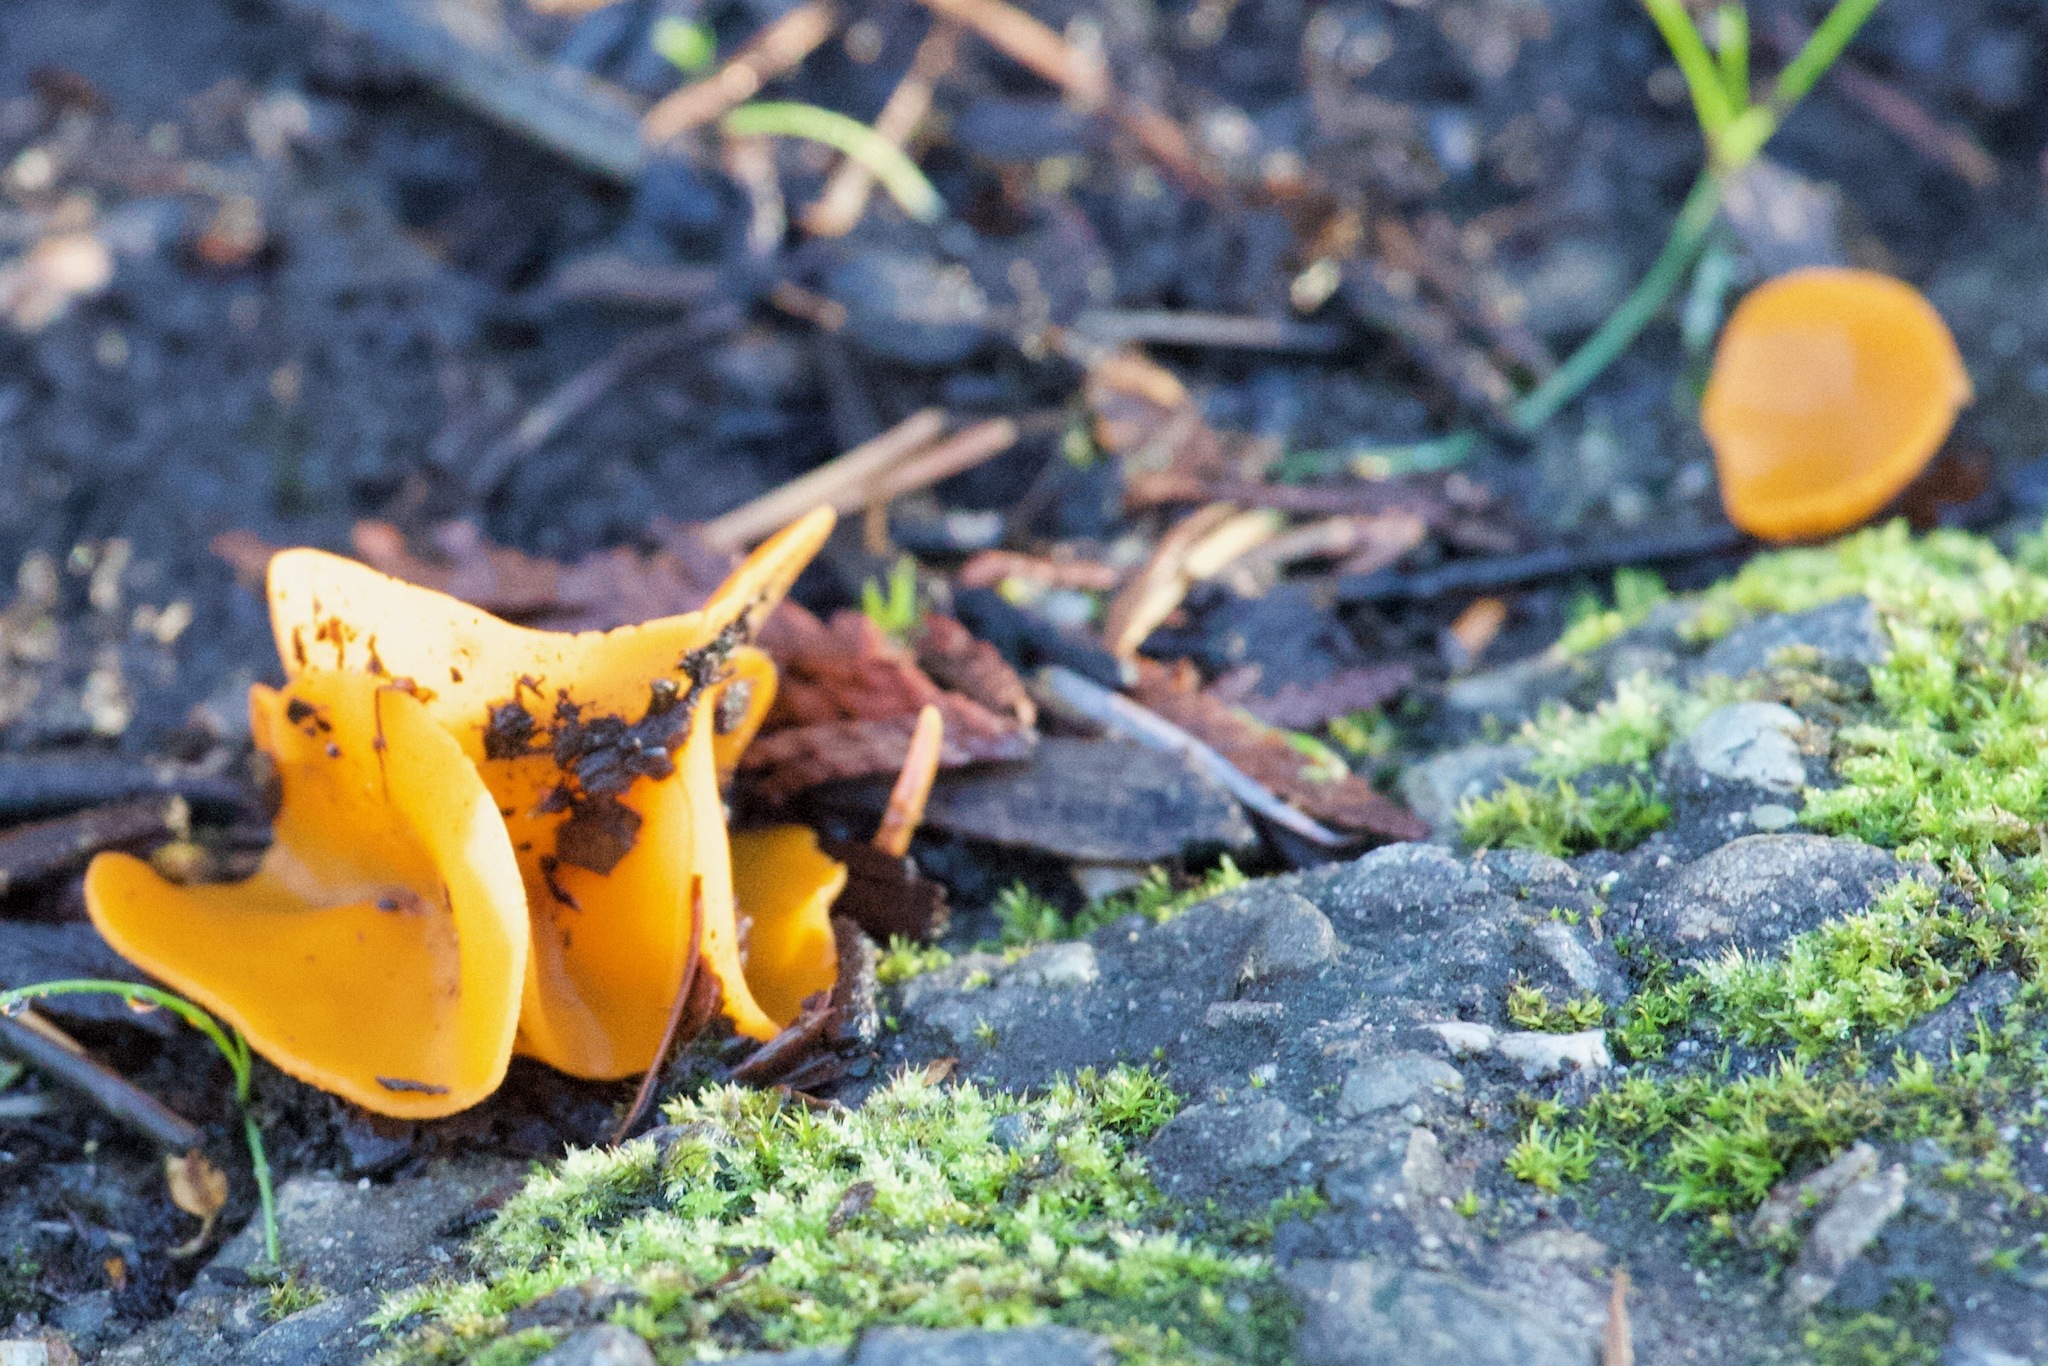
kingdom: Fungi
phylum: Ascomycota
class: Pezizomycetes
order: Pezizales
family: Pyronemataceae
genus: Aleuria
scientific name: Aleuria aurantia
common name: Orange peel fungus
